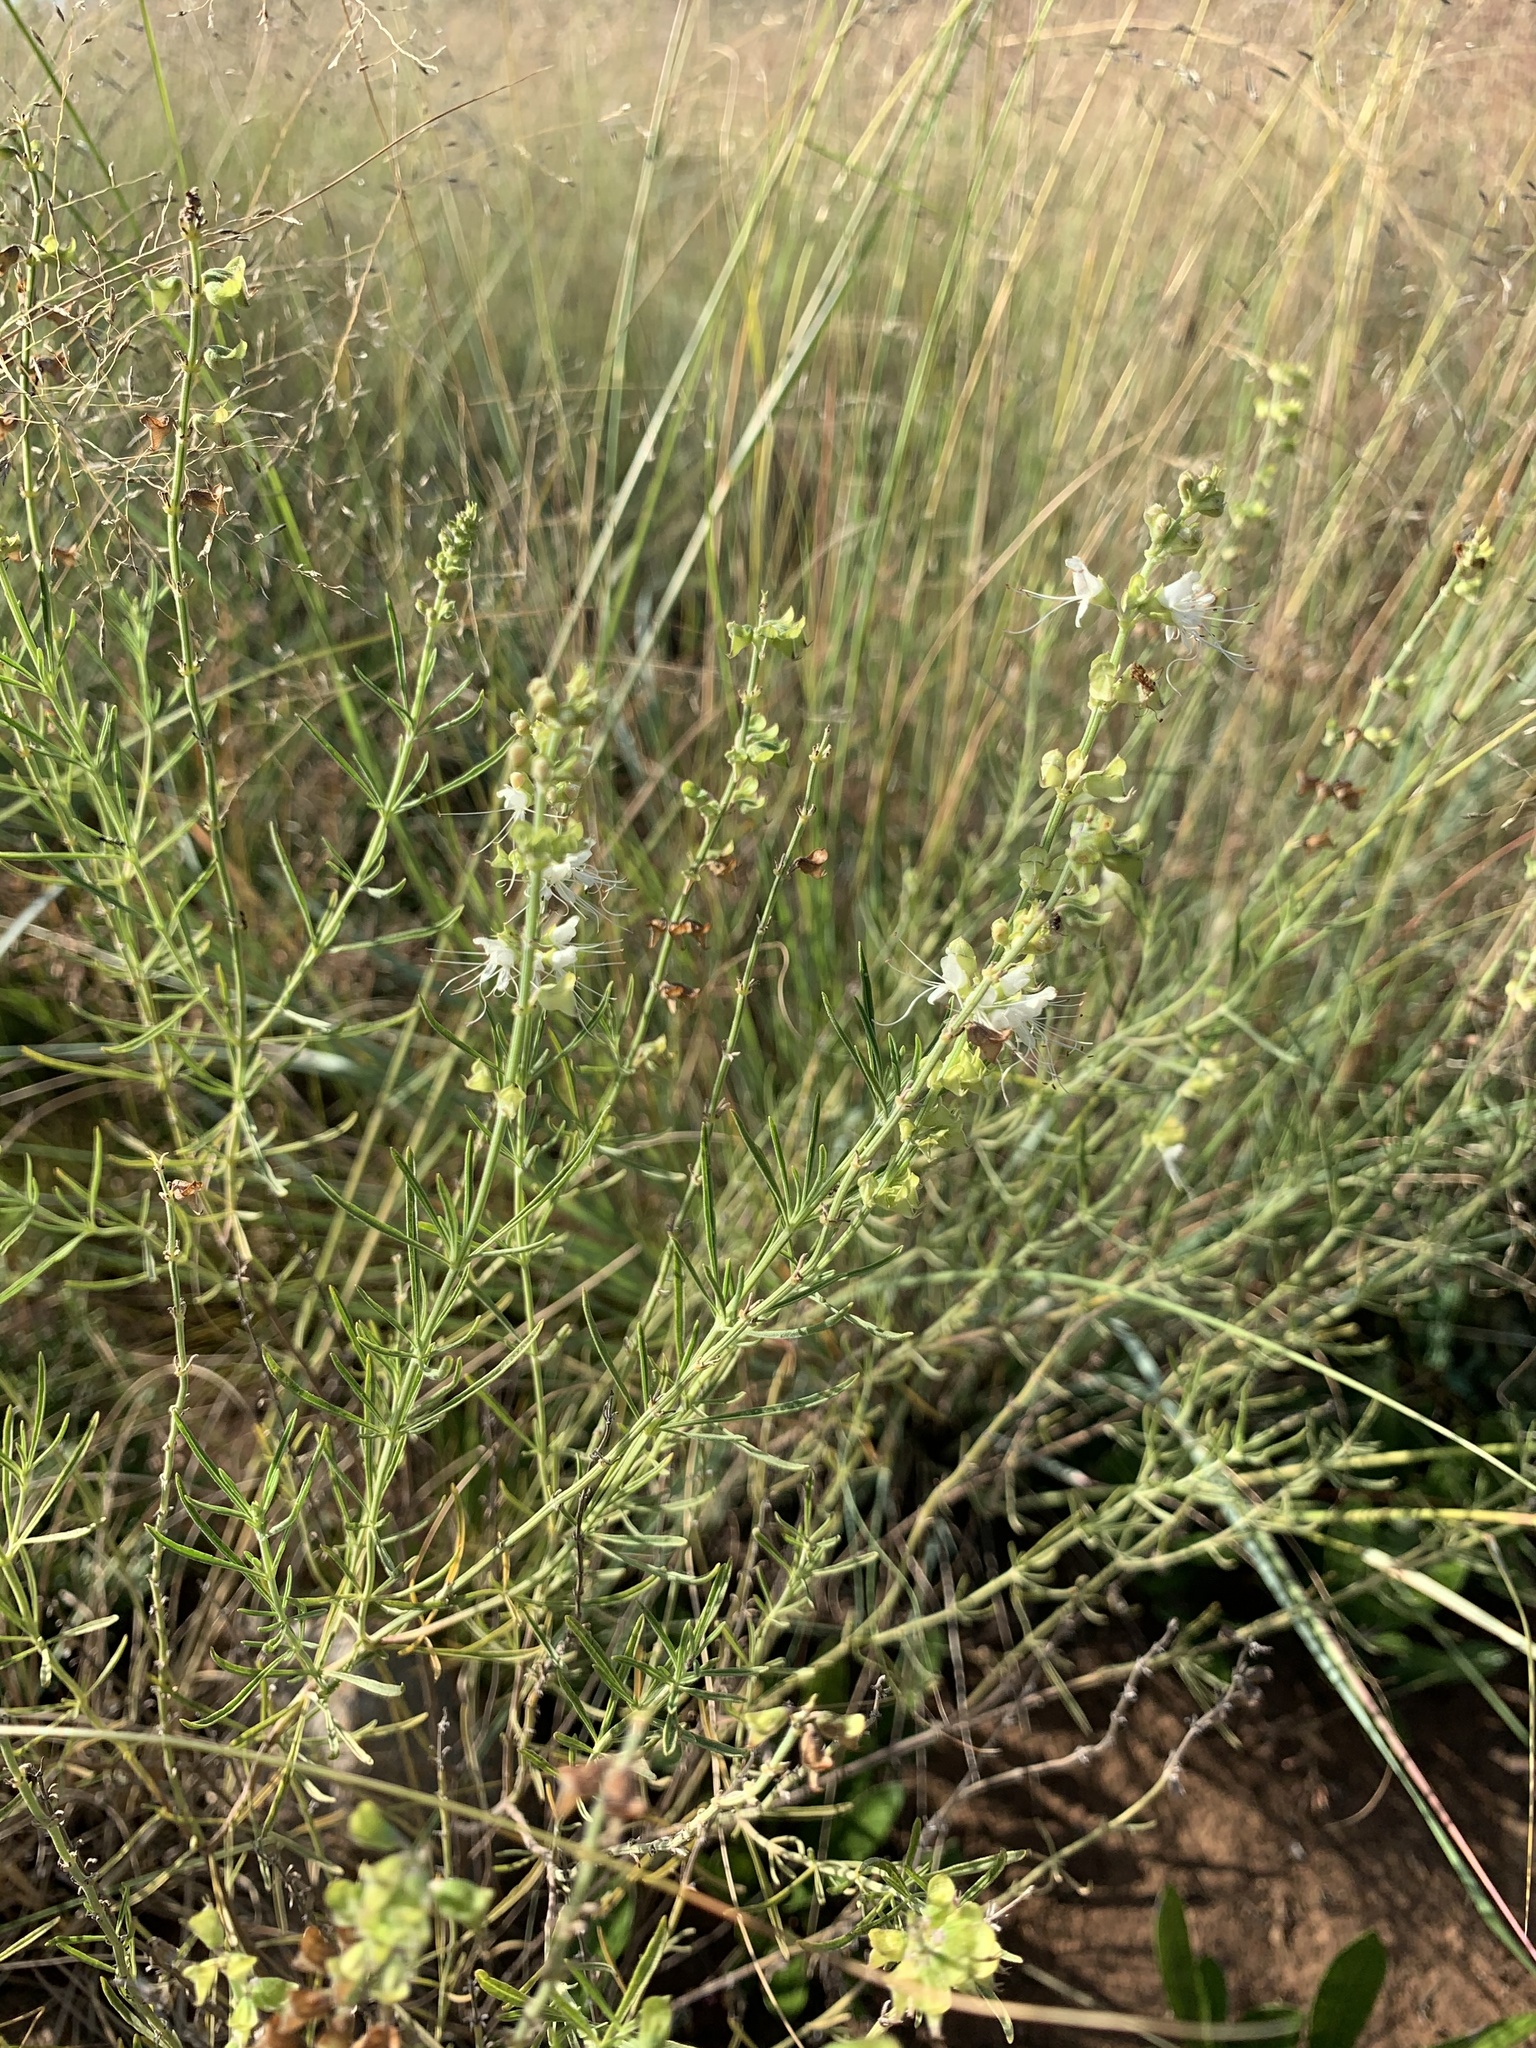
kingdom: Plantae
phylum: Tracheophyta
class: Magnoliopsida
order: Lamiales
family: Lamiaceae
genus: Ocimum
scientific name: Ocimum angustifolium
